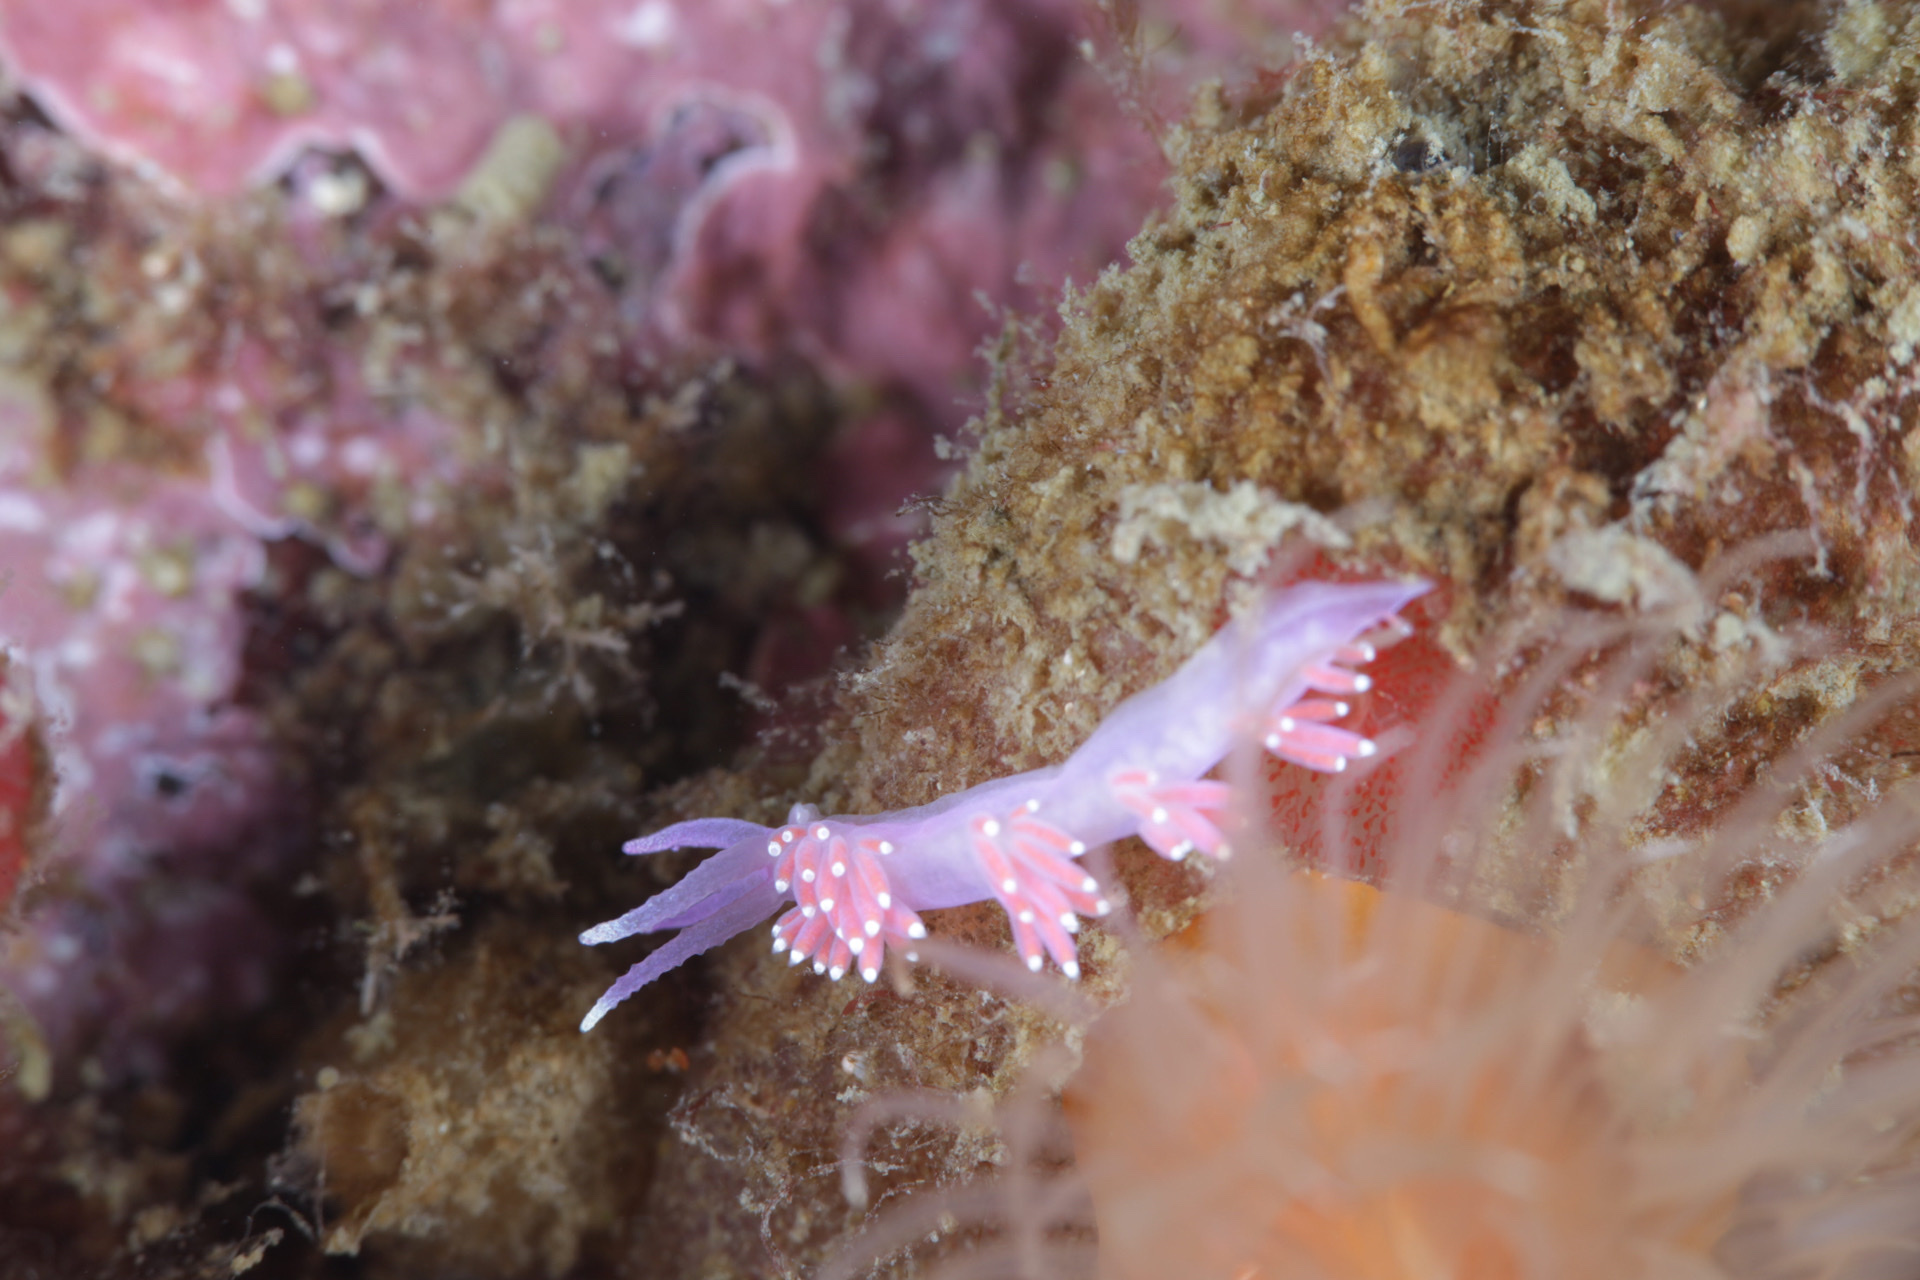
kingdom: Animalia
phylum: Mollusca
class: Gastropoda
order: Nudibranchia
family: Flabellinidae
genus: Edmundsella
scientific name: Edmundsella pedata
